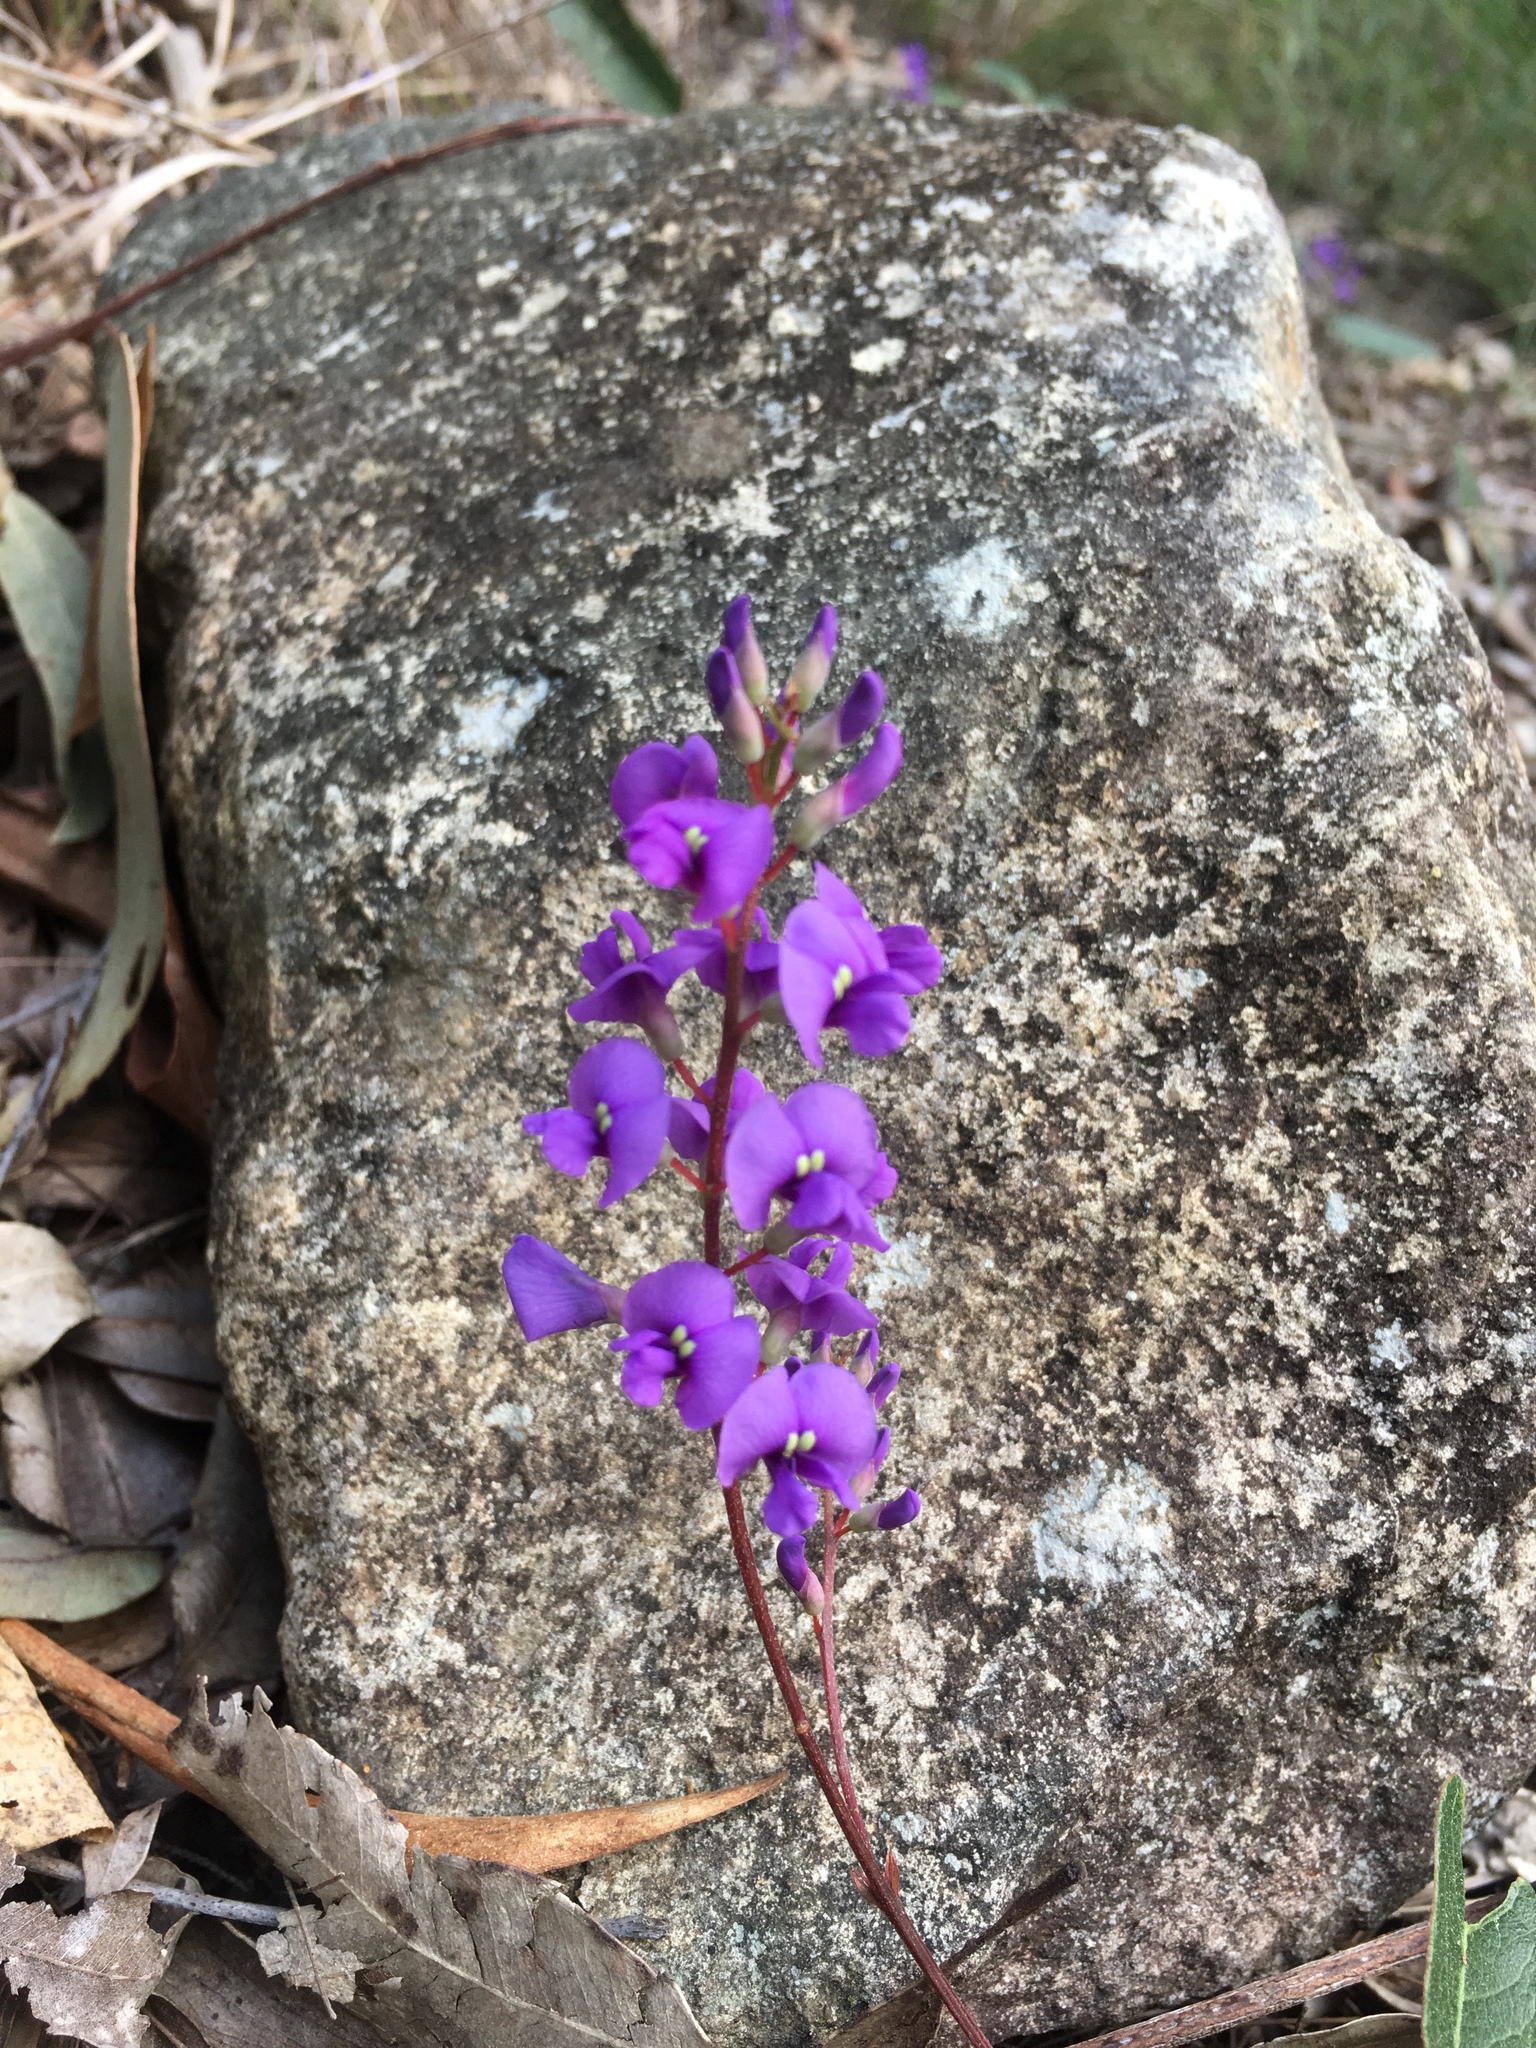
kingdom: Plantae
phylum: Tracheophyta
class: Magnoliopsida
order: Fabales
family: Fabaceae
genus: Hardenbergia
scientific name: Hardenbergia violacea
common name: Coral-pea
